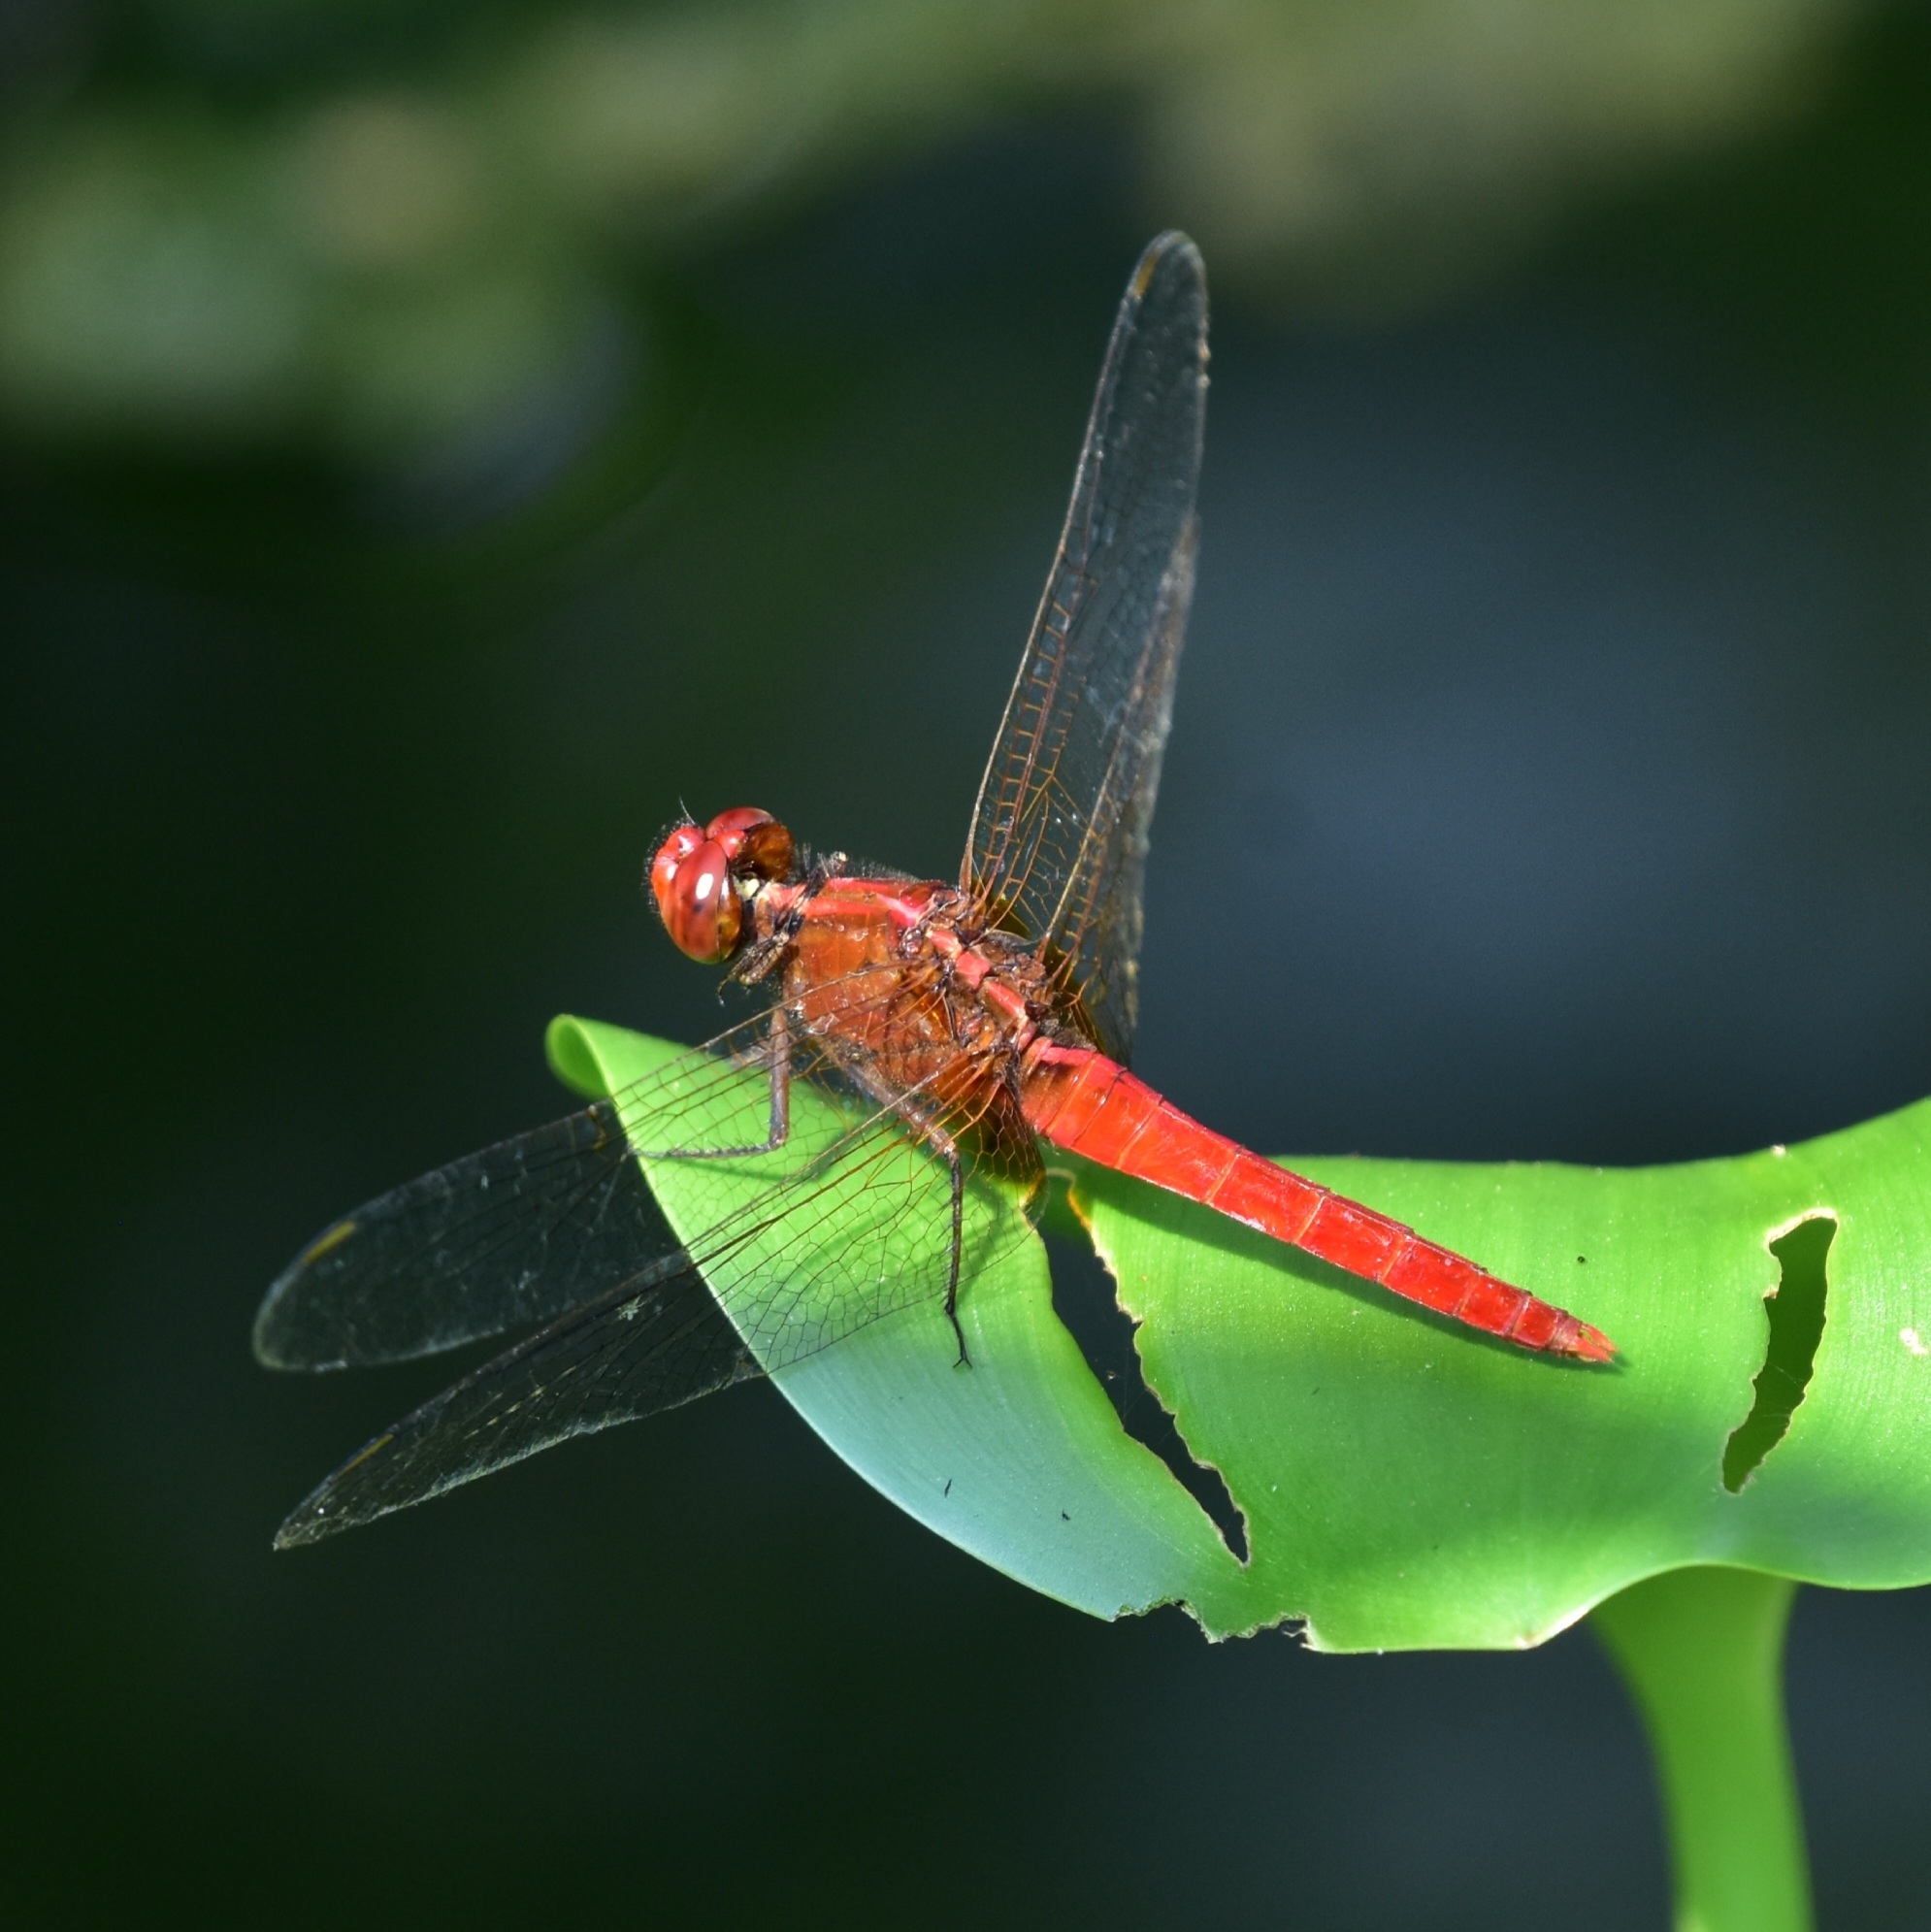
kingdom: Animalia
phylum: Arthropoda
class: Insecta
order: Odonata
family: Libellulidae
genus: Rhodothemis
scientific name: Rhodothemis rufa
